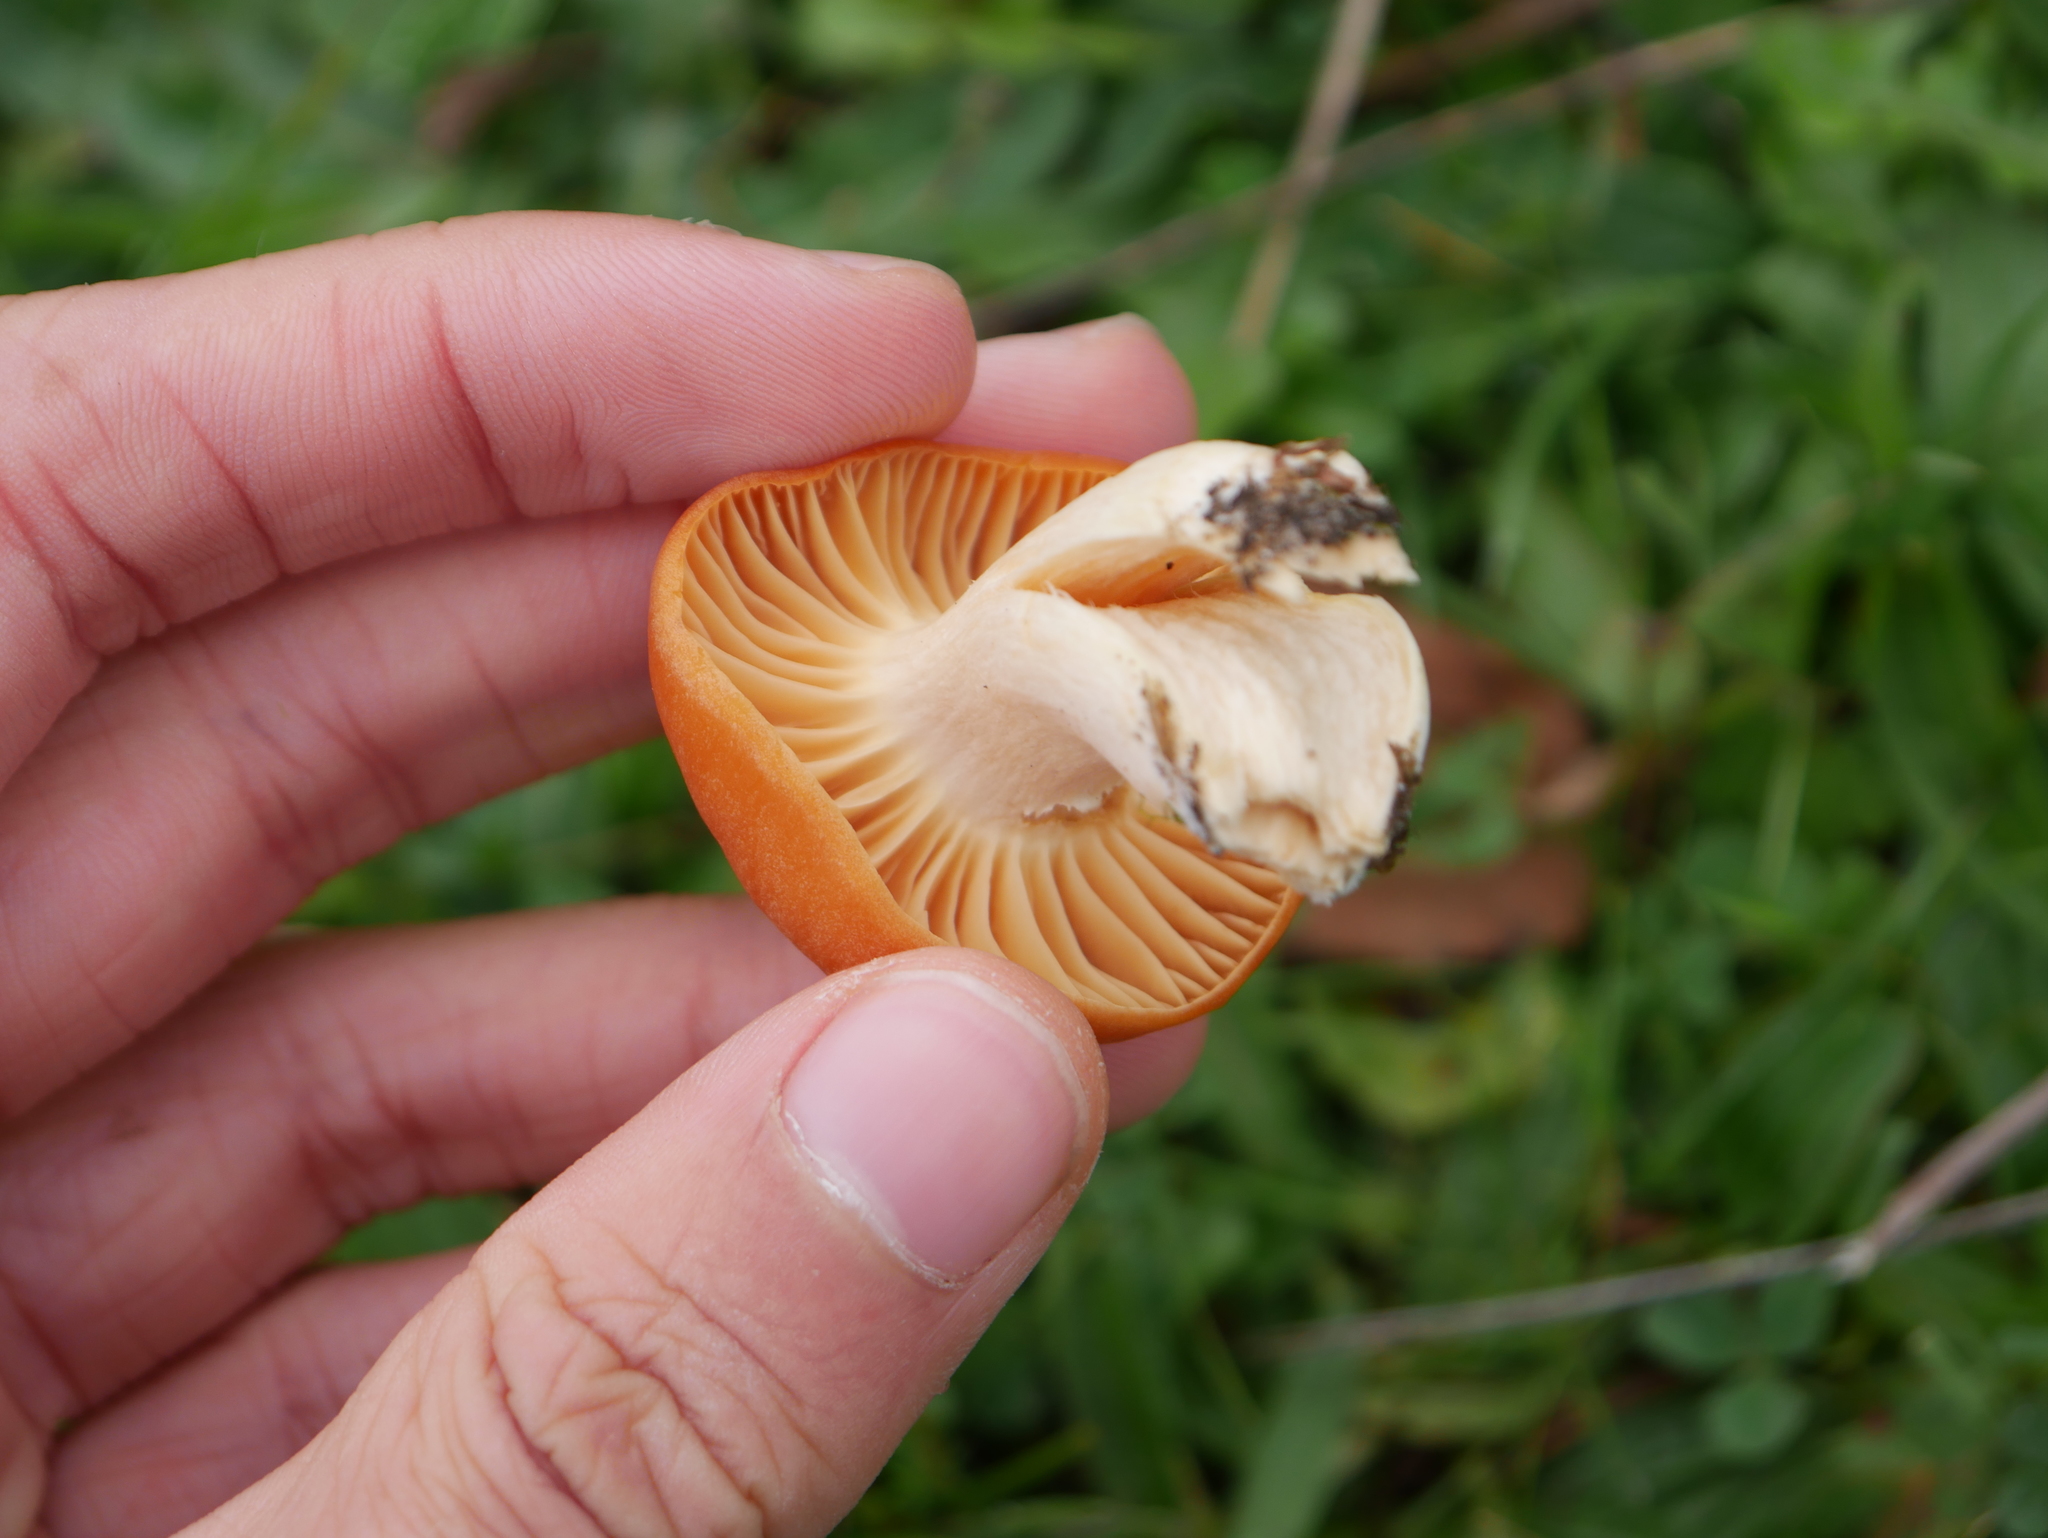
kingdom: Fungi
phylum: Basidiomycota
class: Agaricomycetes
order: Agaricales
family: Hygrophoraceae
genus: Cuphophyllus
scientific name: Cuphophyllus pratensis
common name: Meadow waxcap
